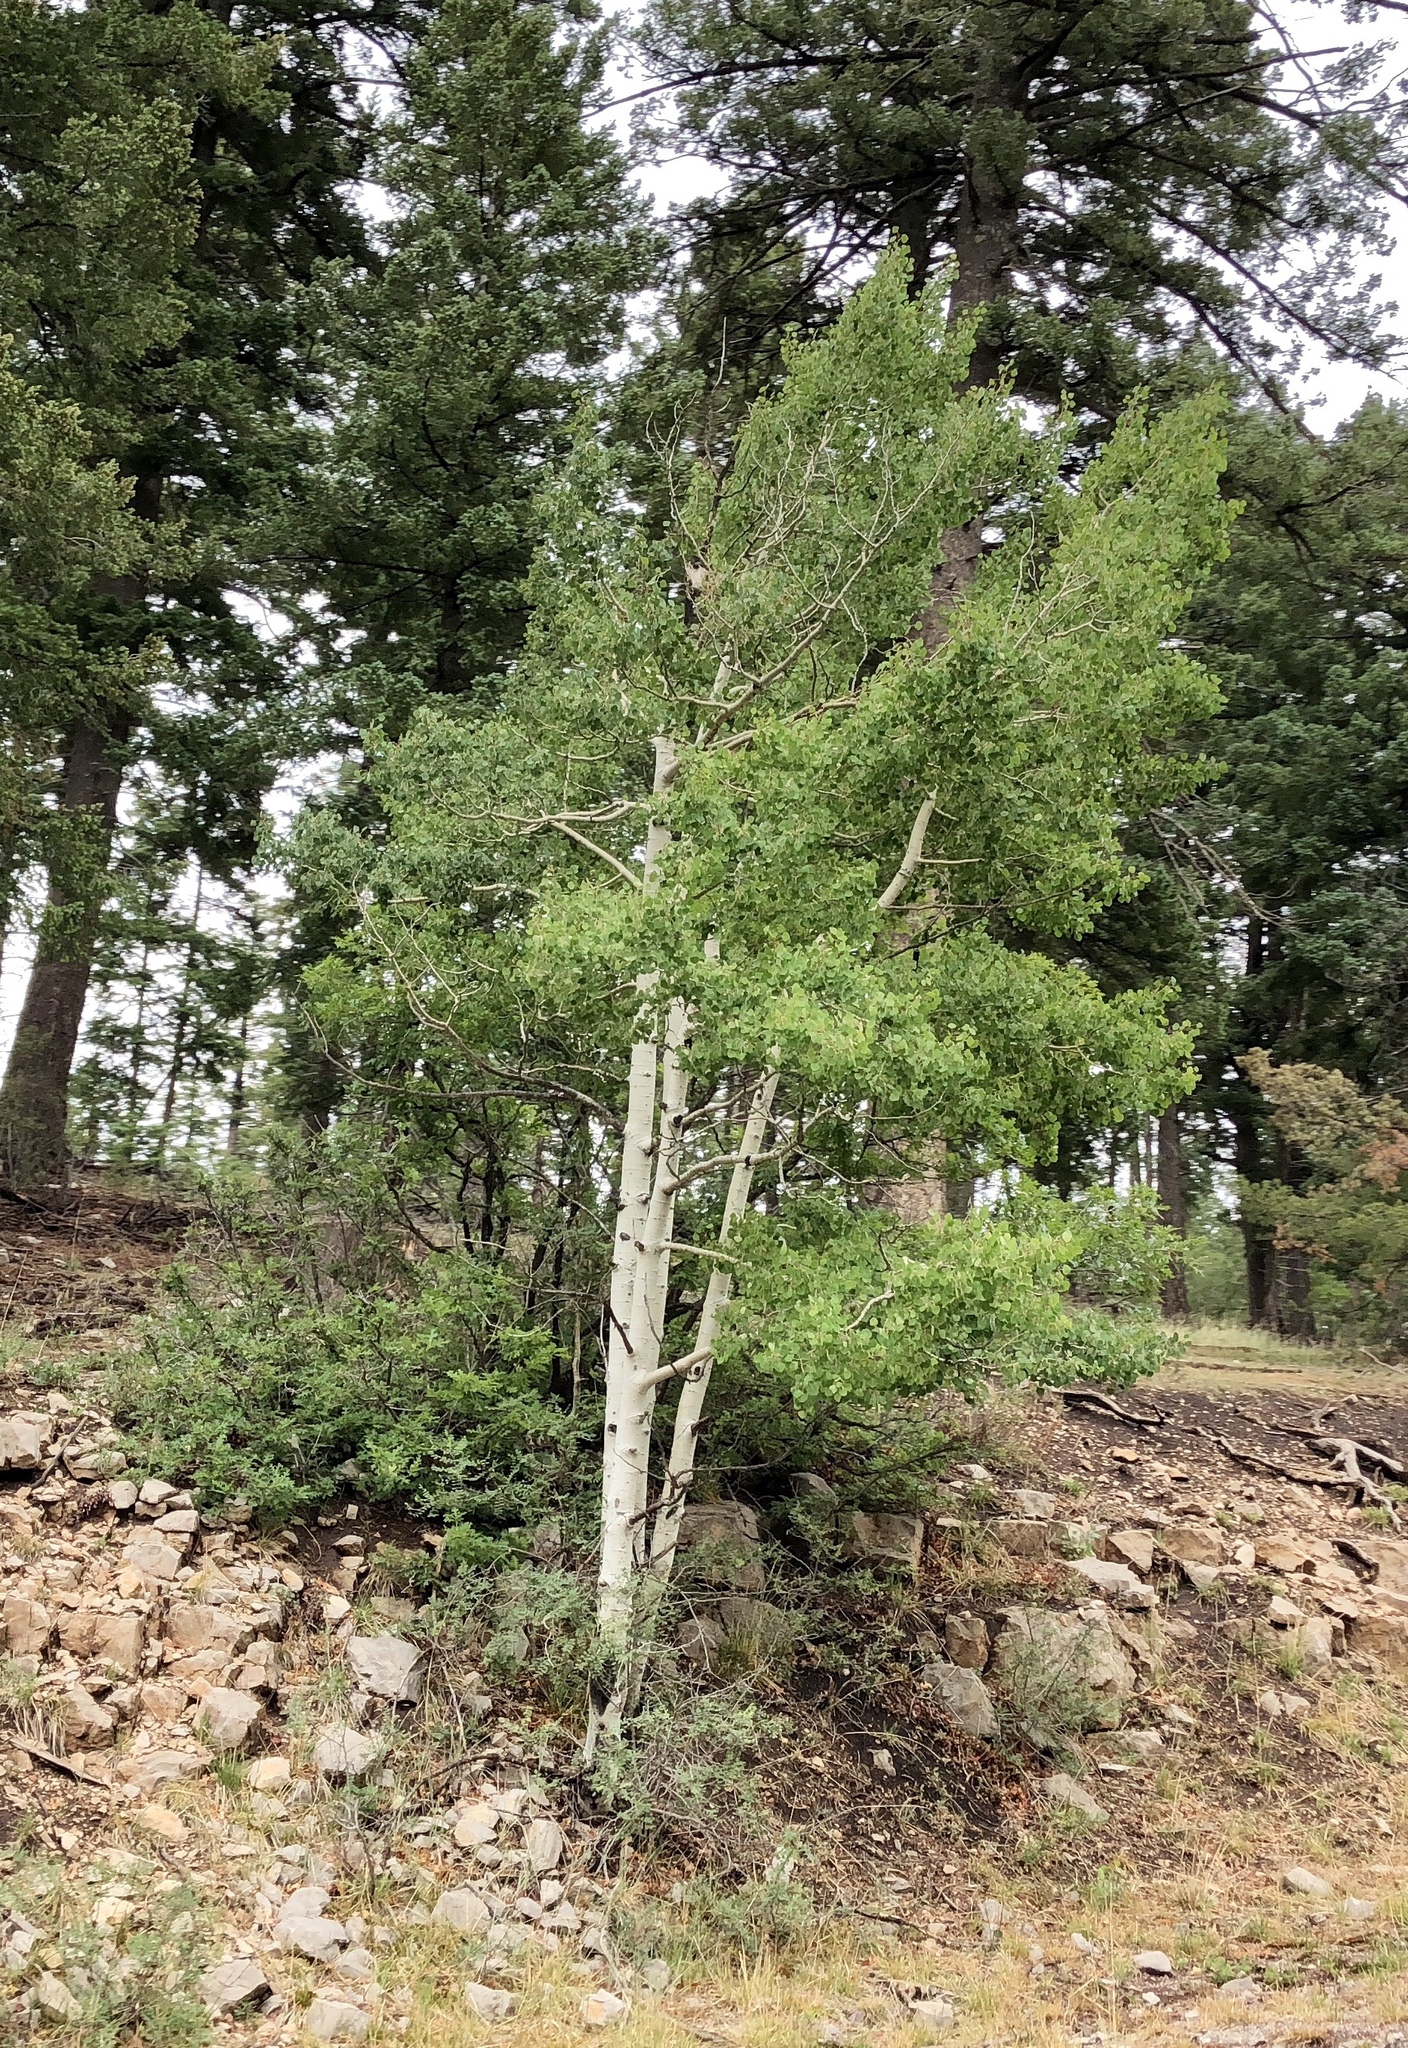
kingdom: Plantae
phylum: Tracheophyta
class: Magnoliopsida
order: Malpighiales
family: Salicaceae
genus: Populus
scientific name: Populus tremuloides
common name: Quaking aspen
